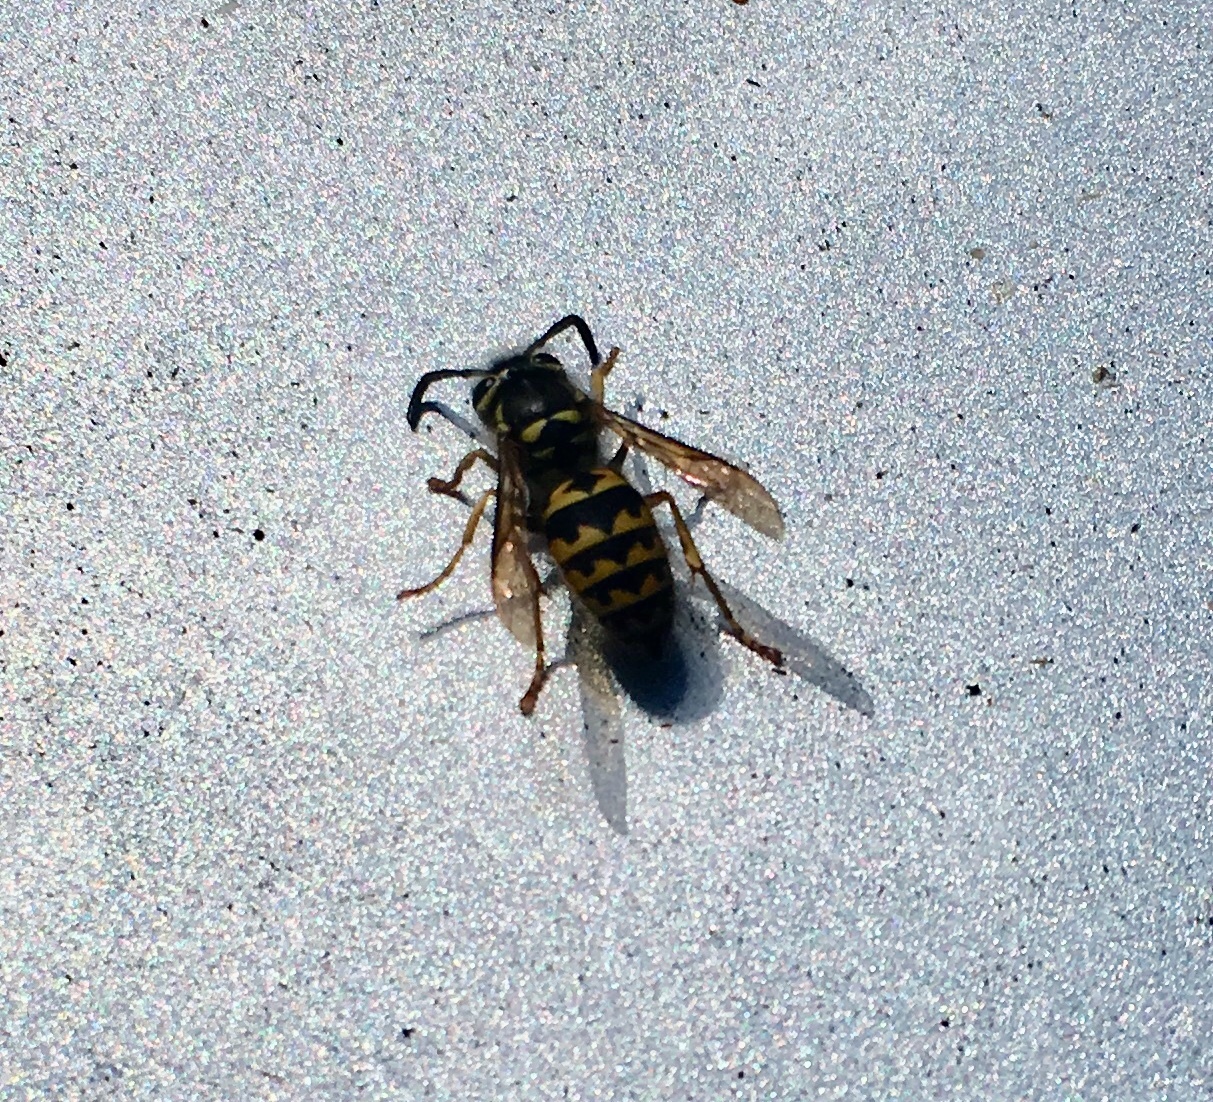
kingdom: Animalia
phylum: Arthropoda
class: Insecta
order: Hymenoptera
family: Vespidae
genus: Vespula
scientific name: Vespula pensylvanica
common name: Western yellowjacket
